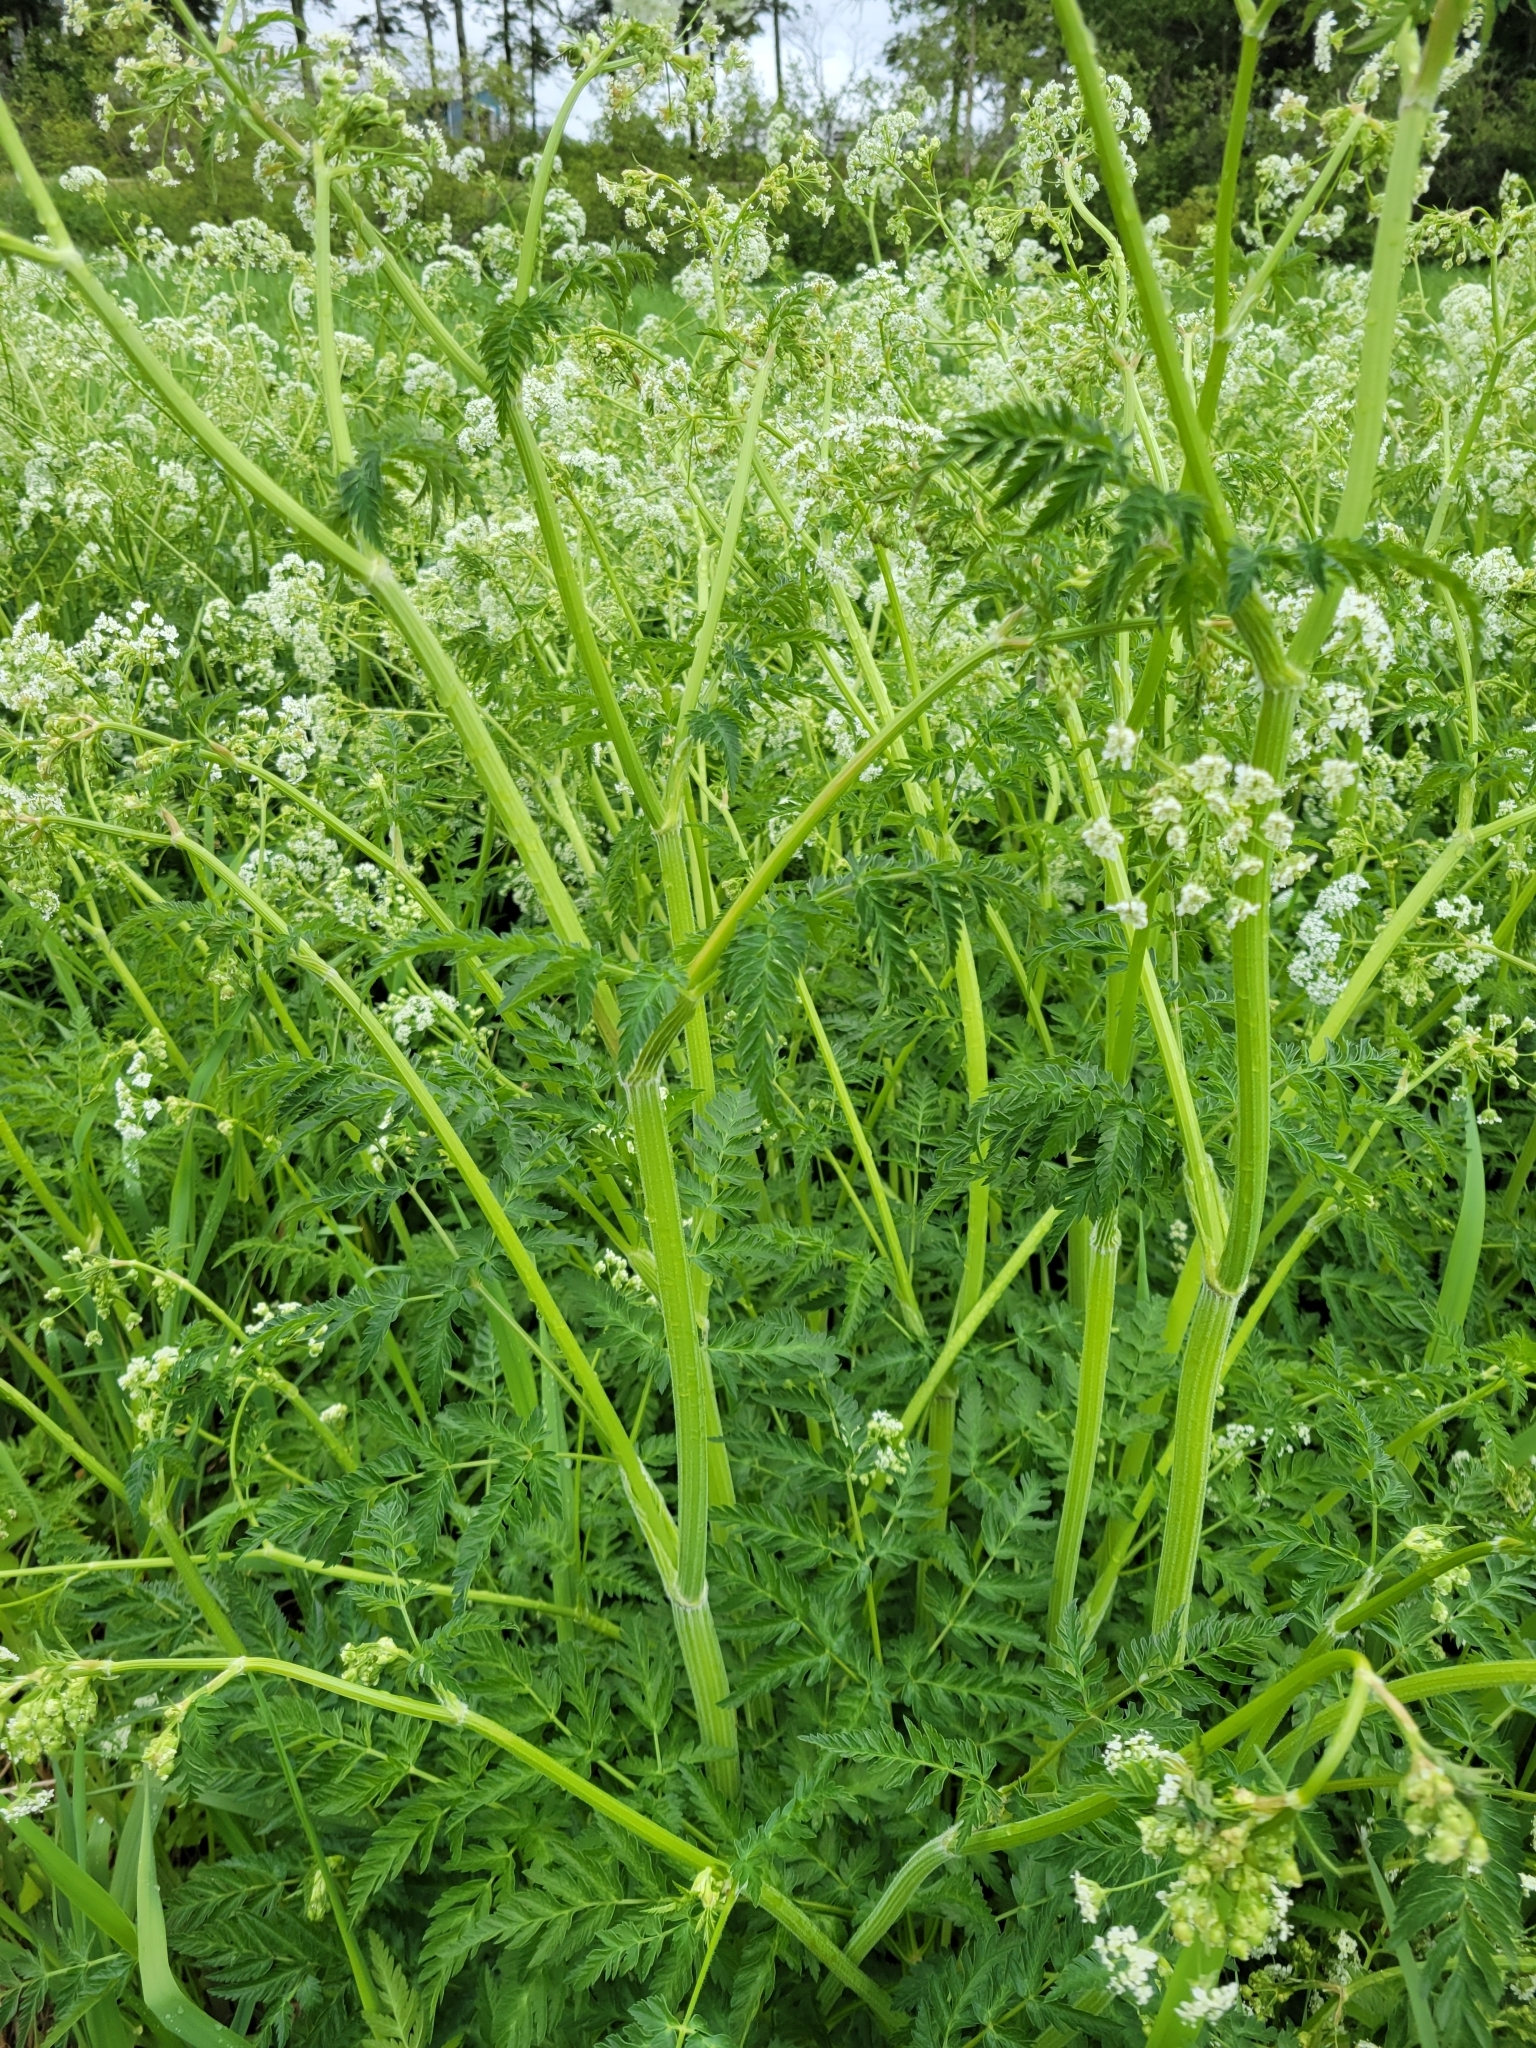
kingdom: Plantae
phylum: Tracheophyta
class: Magnoliopsida
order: Apiales
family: Apiaceae
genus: Anthriscus
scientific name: Anthriscus sylvestris
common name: Cow parsley
